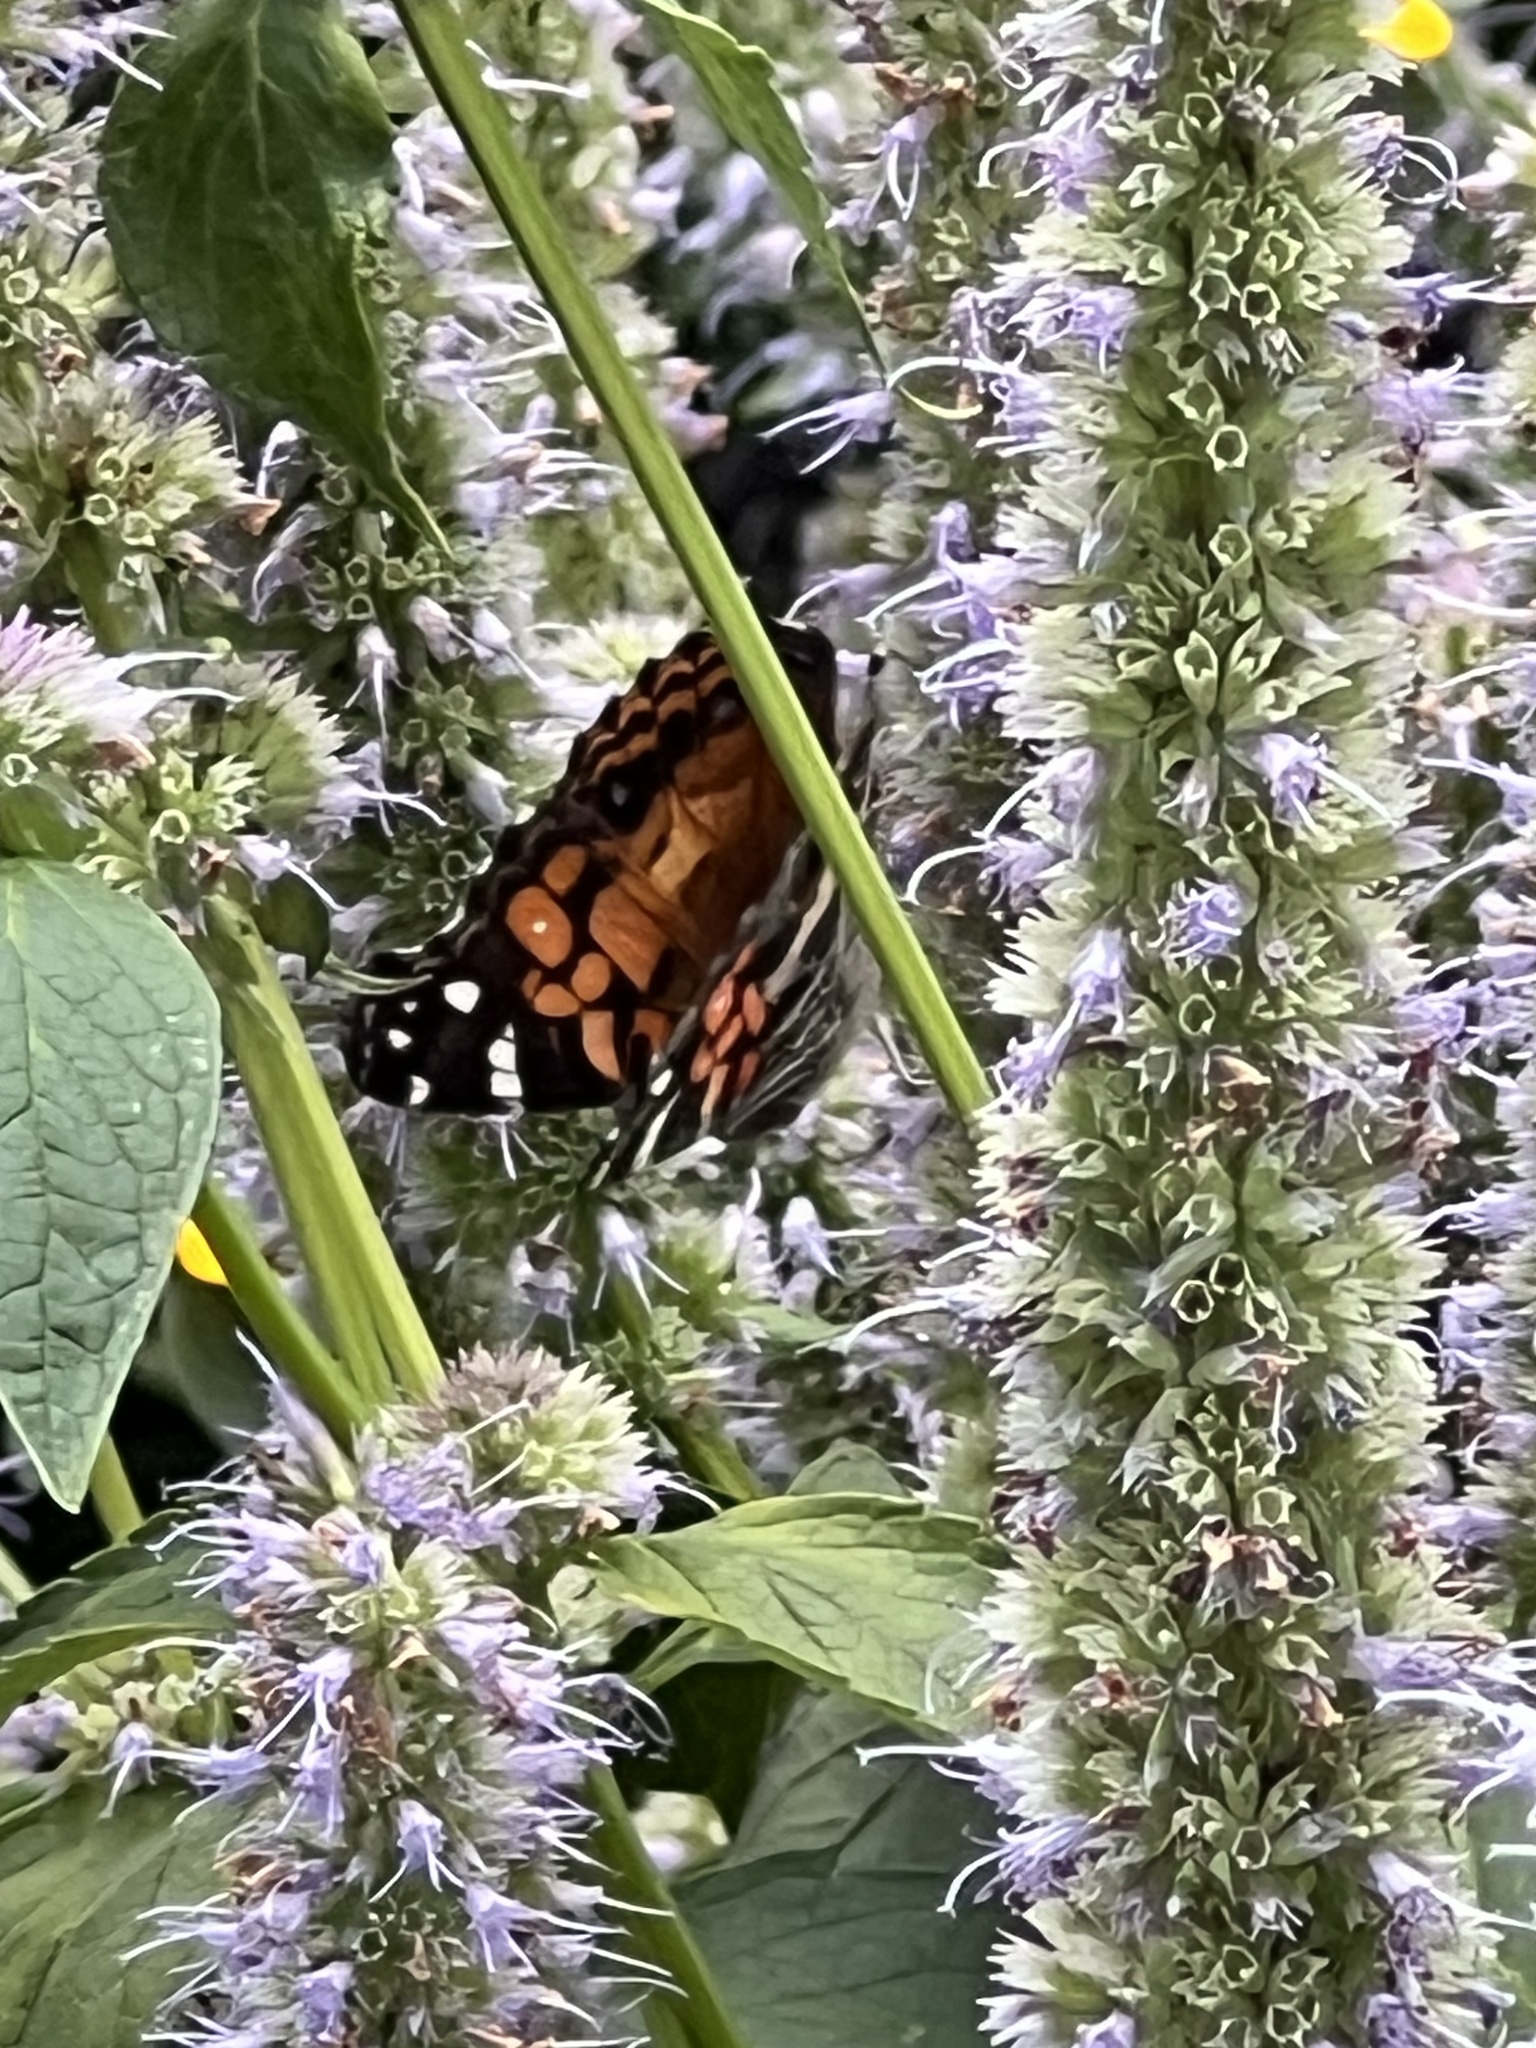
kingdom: Animalia
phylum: Arthropoda
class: Insecta
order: Lepidoptera
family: Nymphalidae
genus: Vanessa
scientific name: Vanessa virginiensis
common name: American lady
